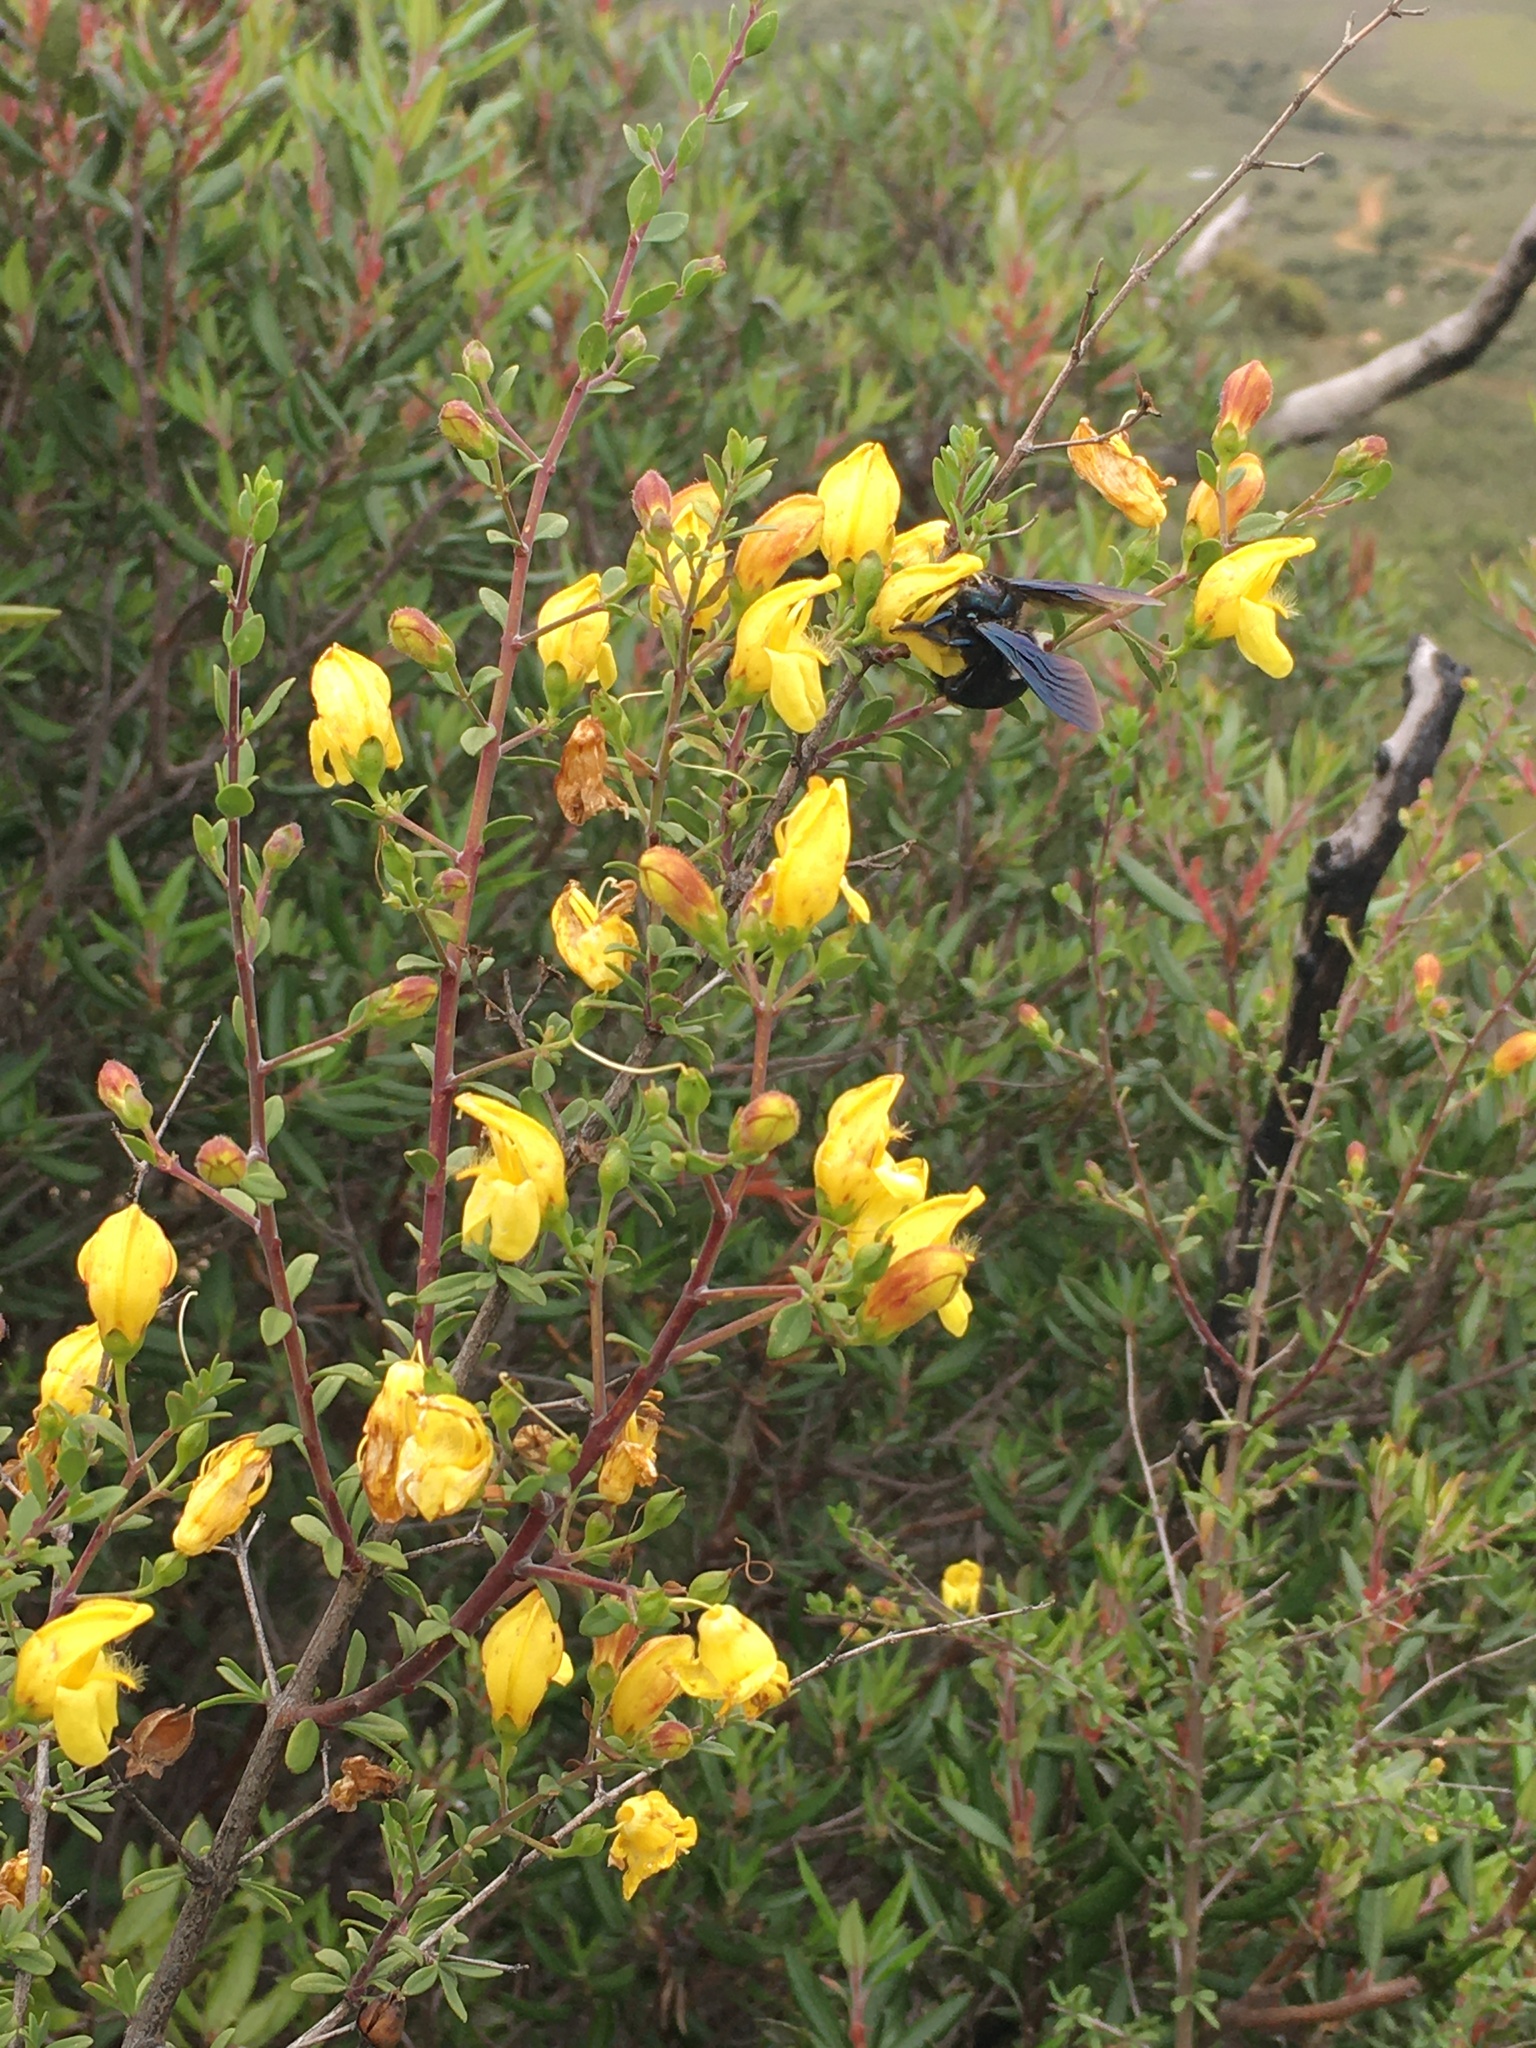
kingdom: Plantae
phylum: Tracheophyta
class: Magnoliopsida
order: Lamiales
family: Plantaginaceae
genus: Keckiella
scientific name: Keckiella antirrhinoides
